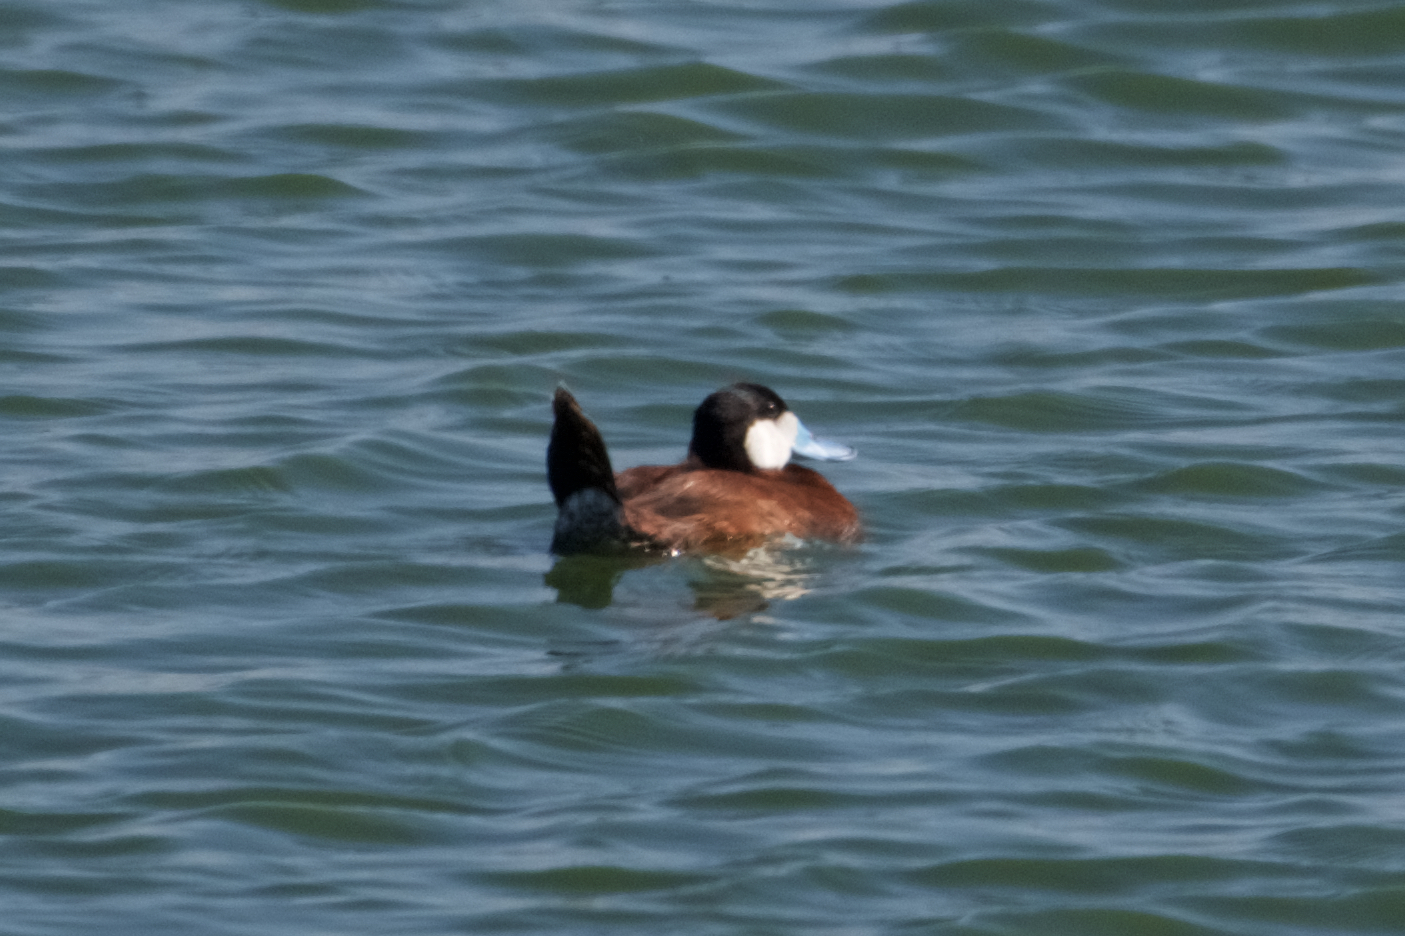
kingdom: Animalia
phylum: Chordata
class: Aves
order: Anseriformes
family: Anatidae
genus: Oxyura
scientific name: Oxyura jamaicensis
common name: Ruddy duck
